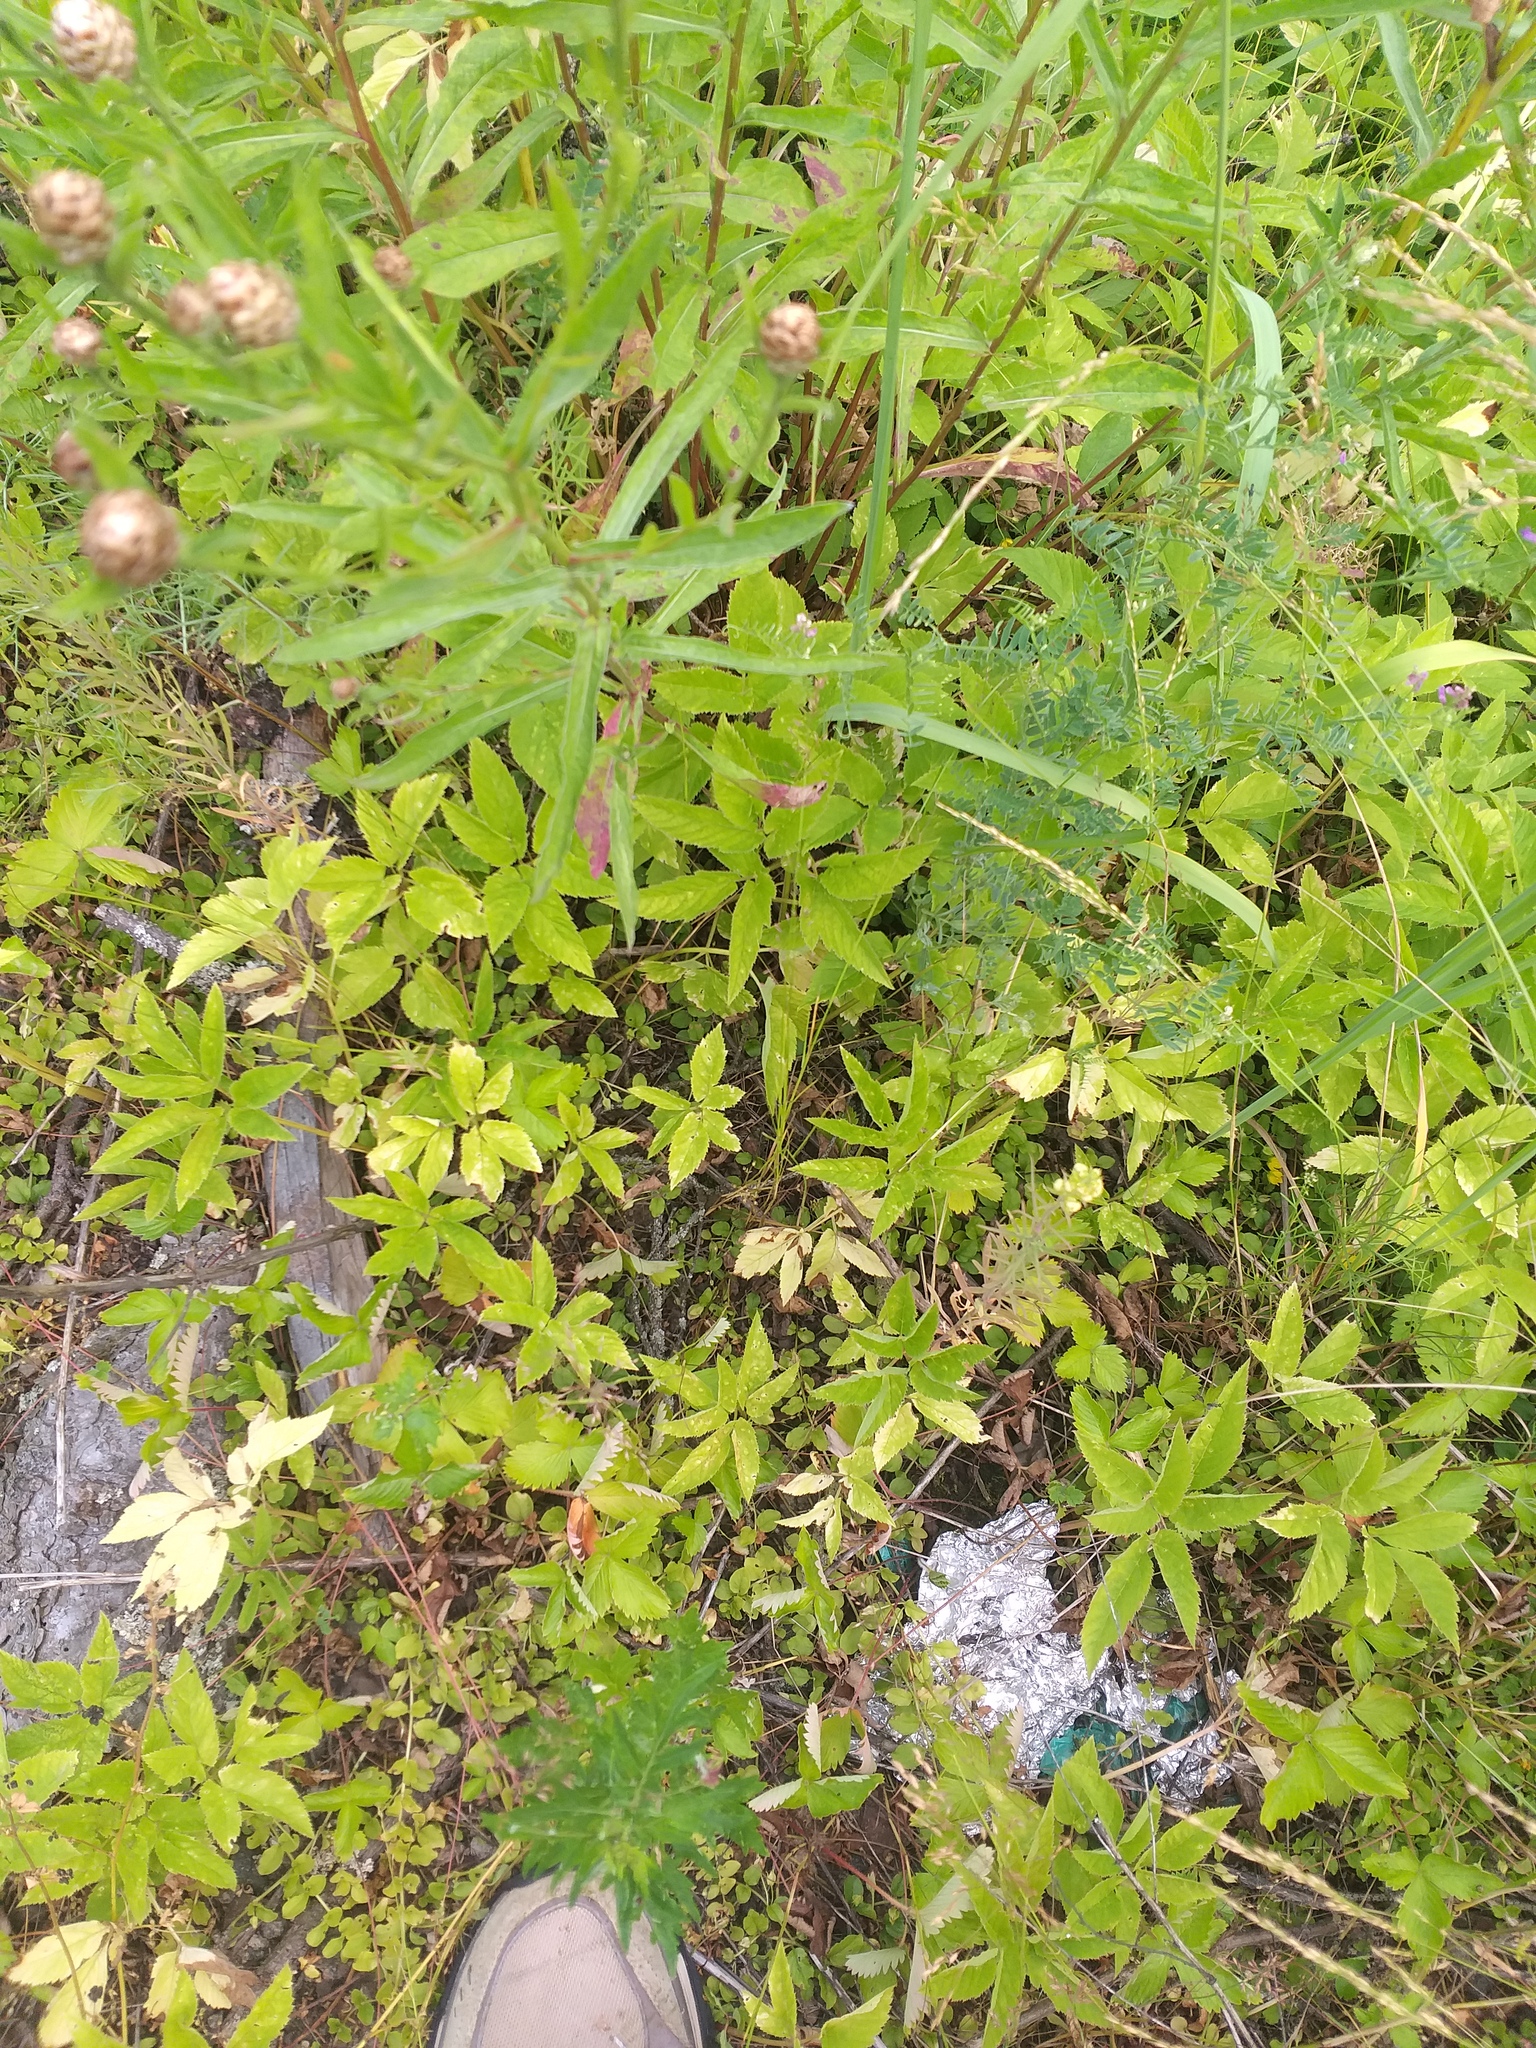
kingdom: Plantae
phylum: Tracheophyta
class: Magnoliopsida
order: Apiales
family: Apiaceae
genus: Aegopodium
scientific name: Aegopodium podagraria
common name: Ground-elder
